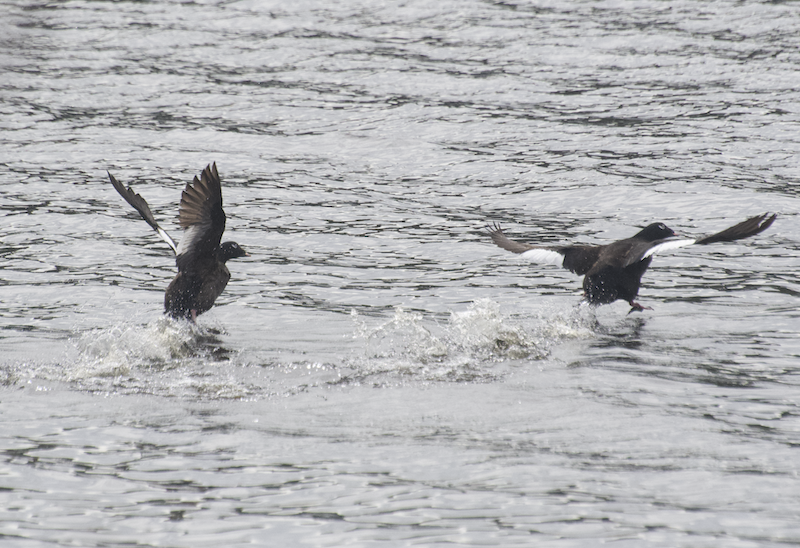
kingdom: Animalia
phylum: Chordata
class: Aves
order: Anseriformes
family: Anatidae
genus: Melanitta
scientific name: Melanitta deglandi
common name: White-winged scoter
